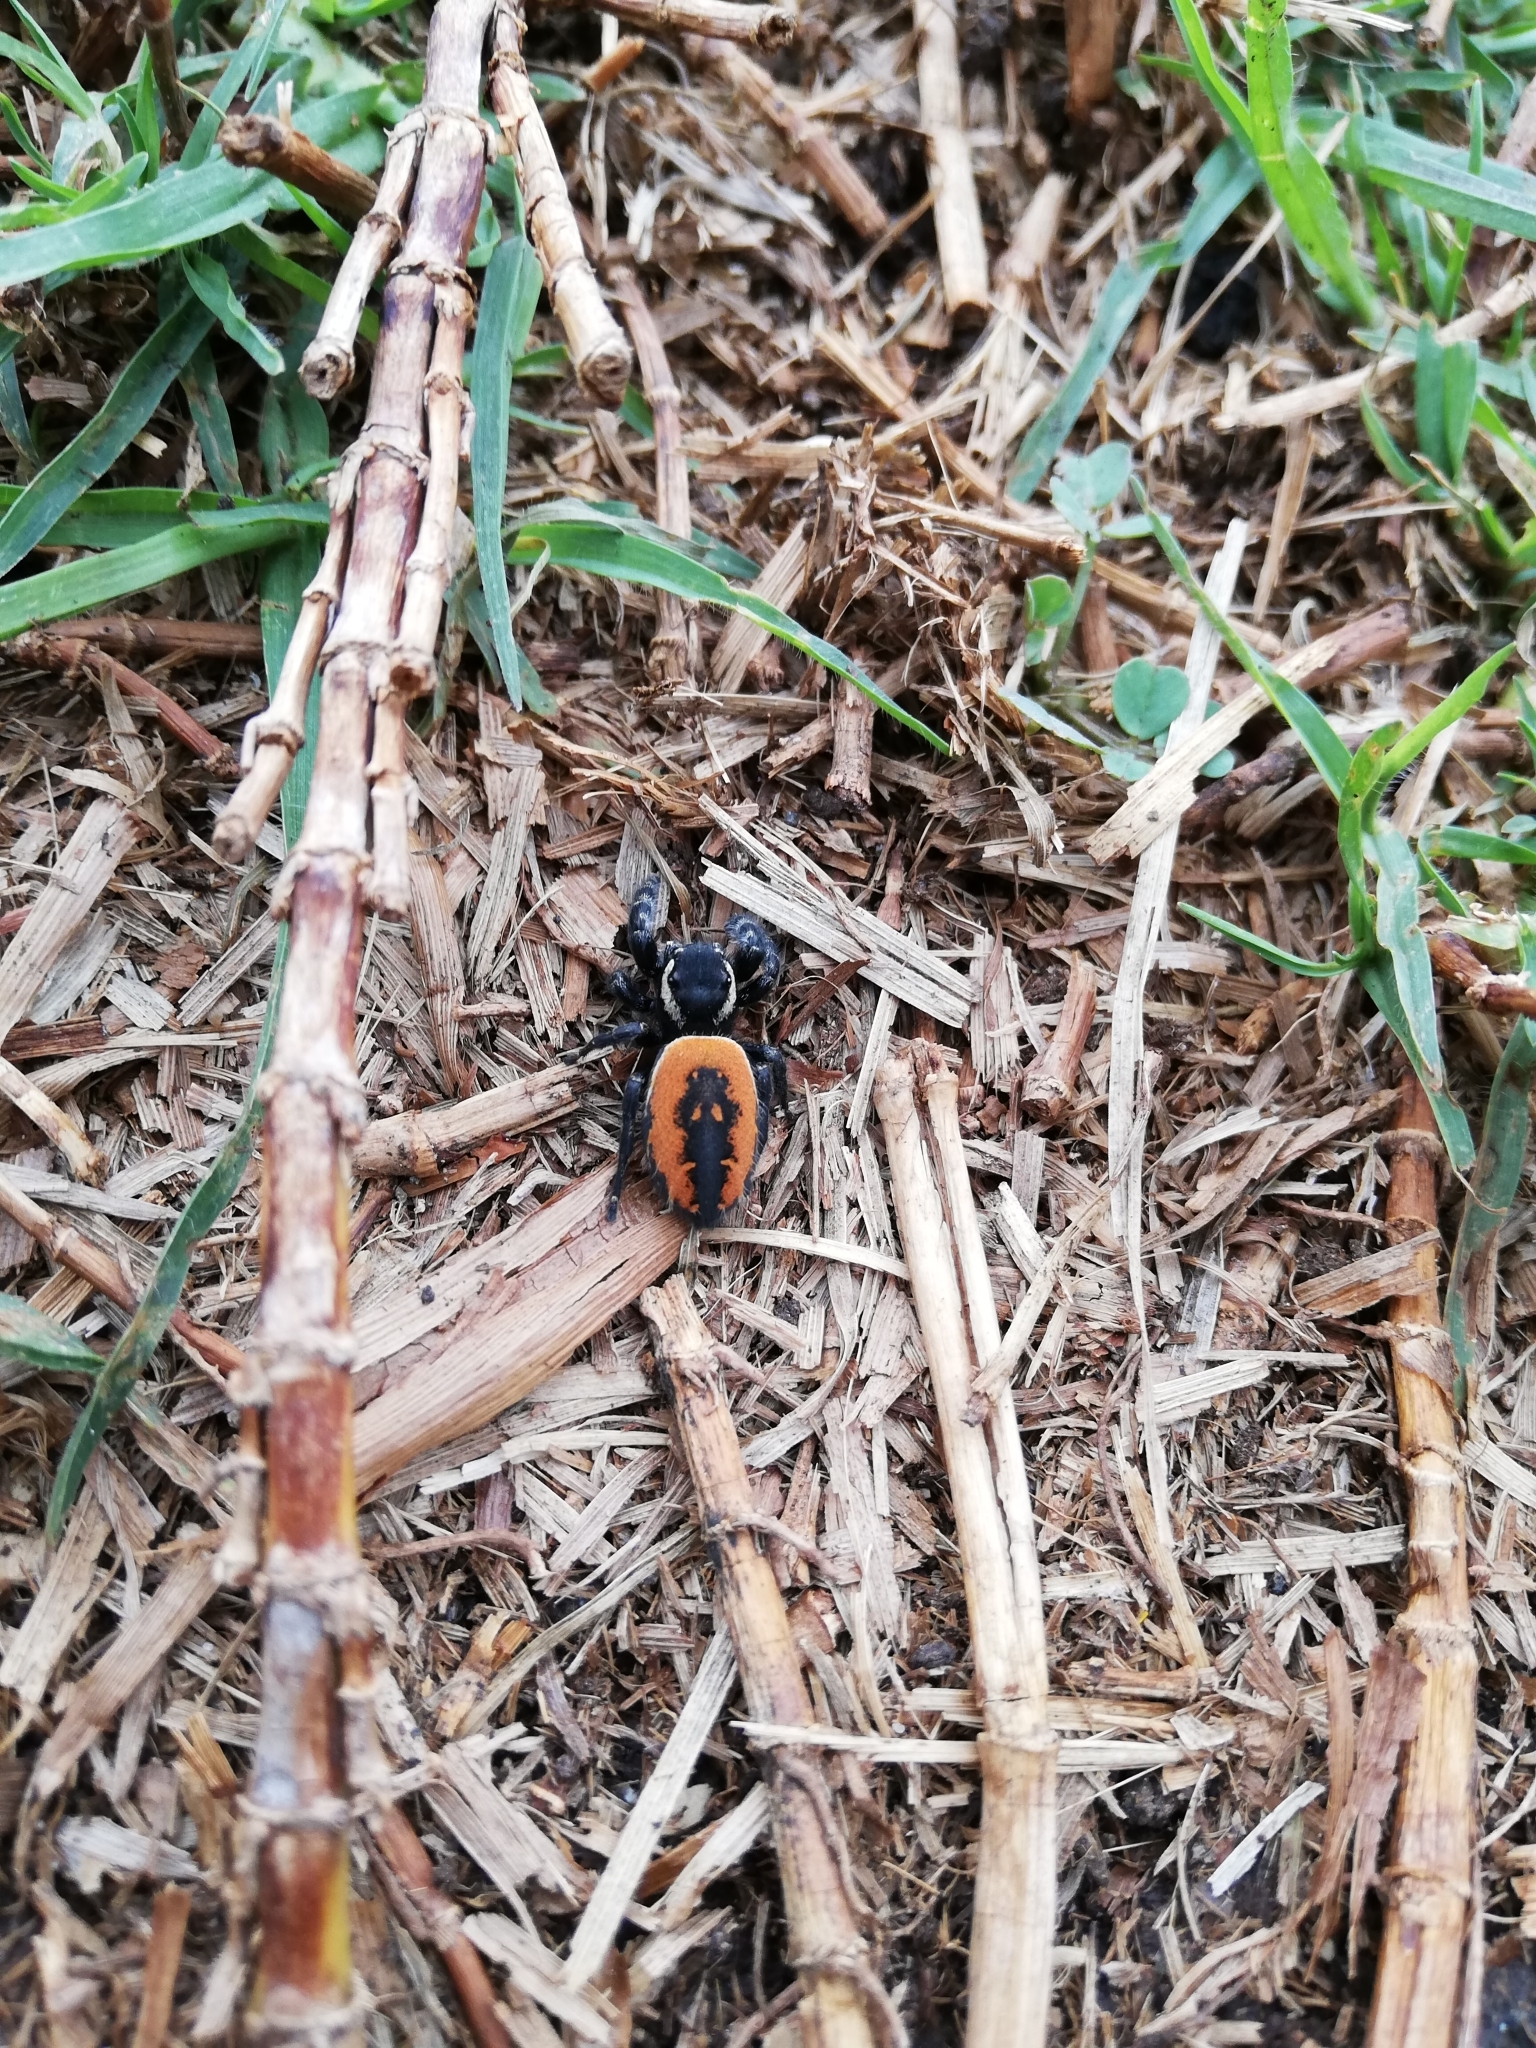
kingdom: Animalia
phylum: Arthropoda
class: Arachnida
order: Araneae
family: Salticidae
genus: Phidippus
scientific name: Phidippus carneus
